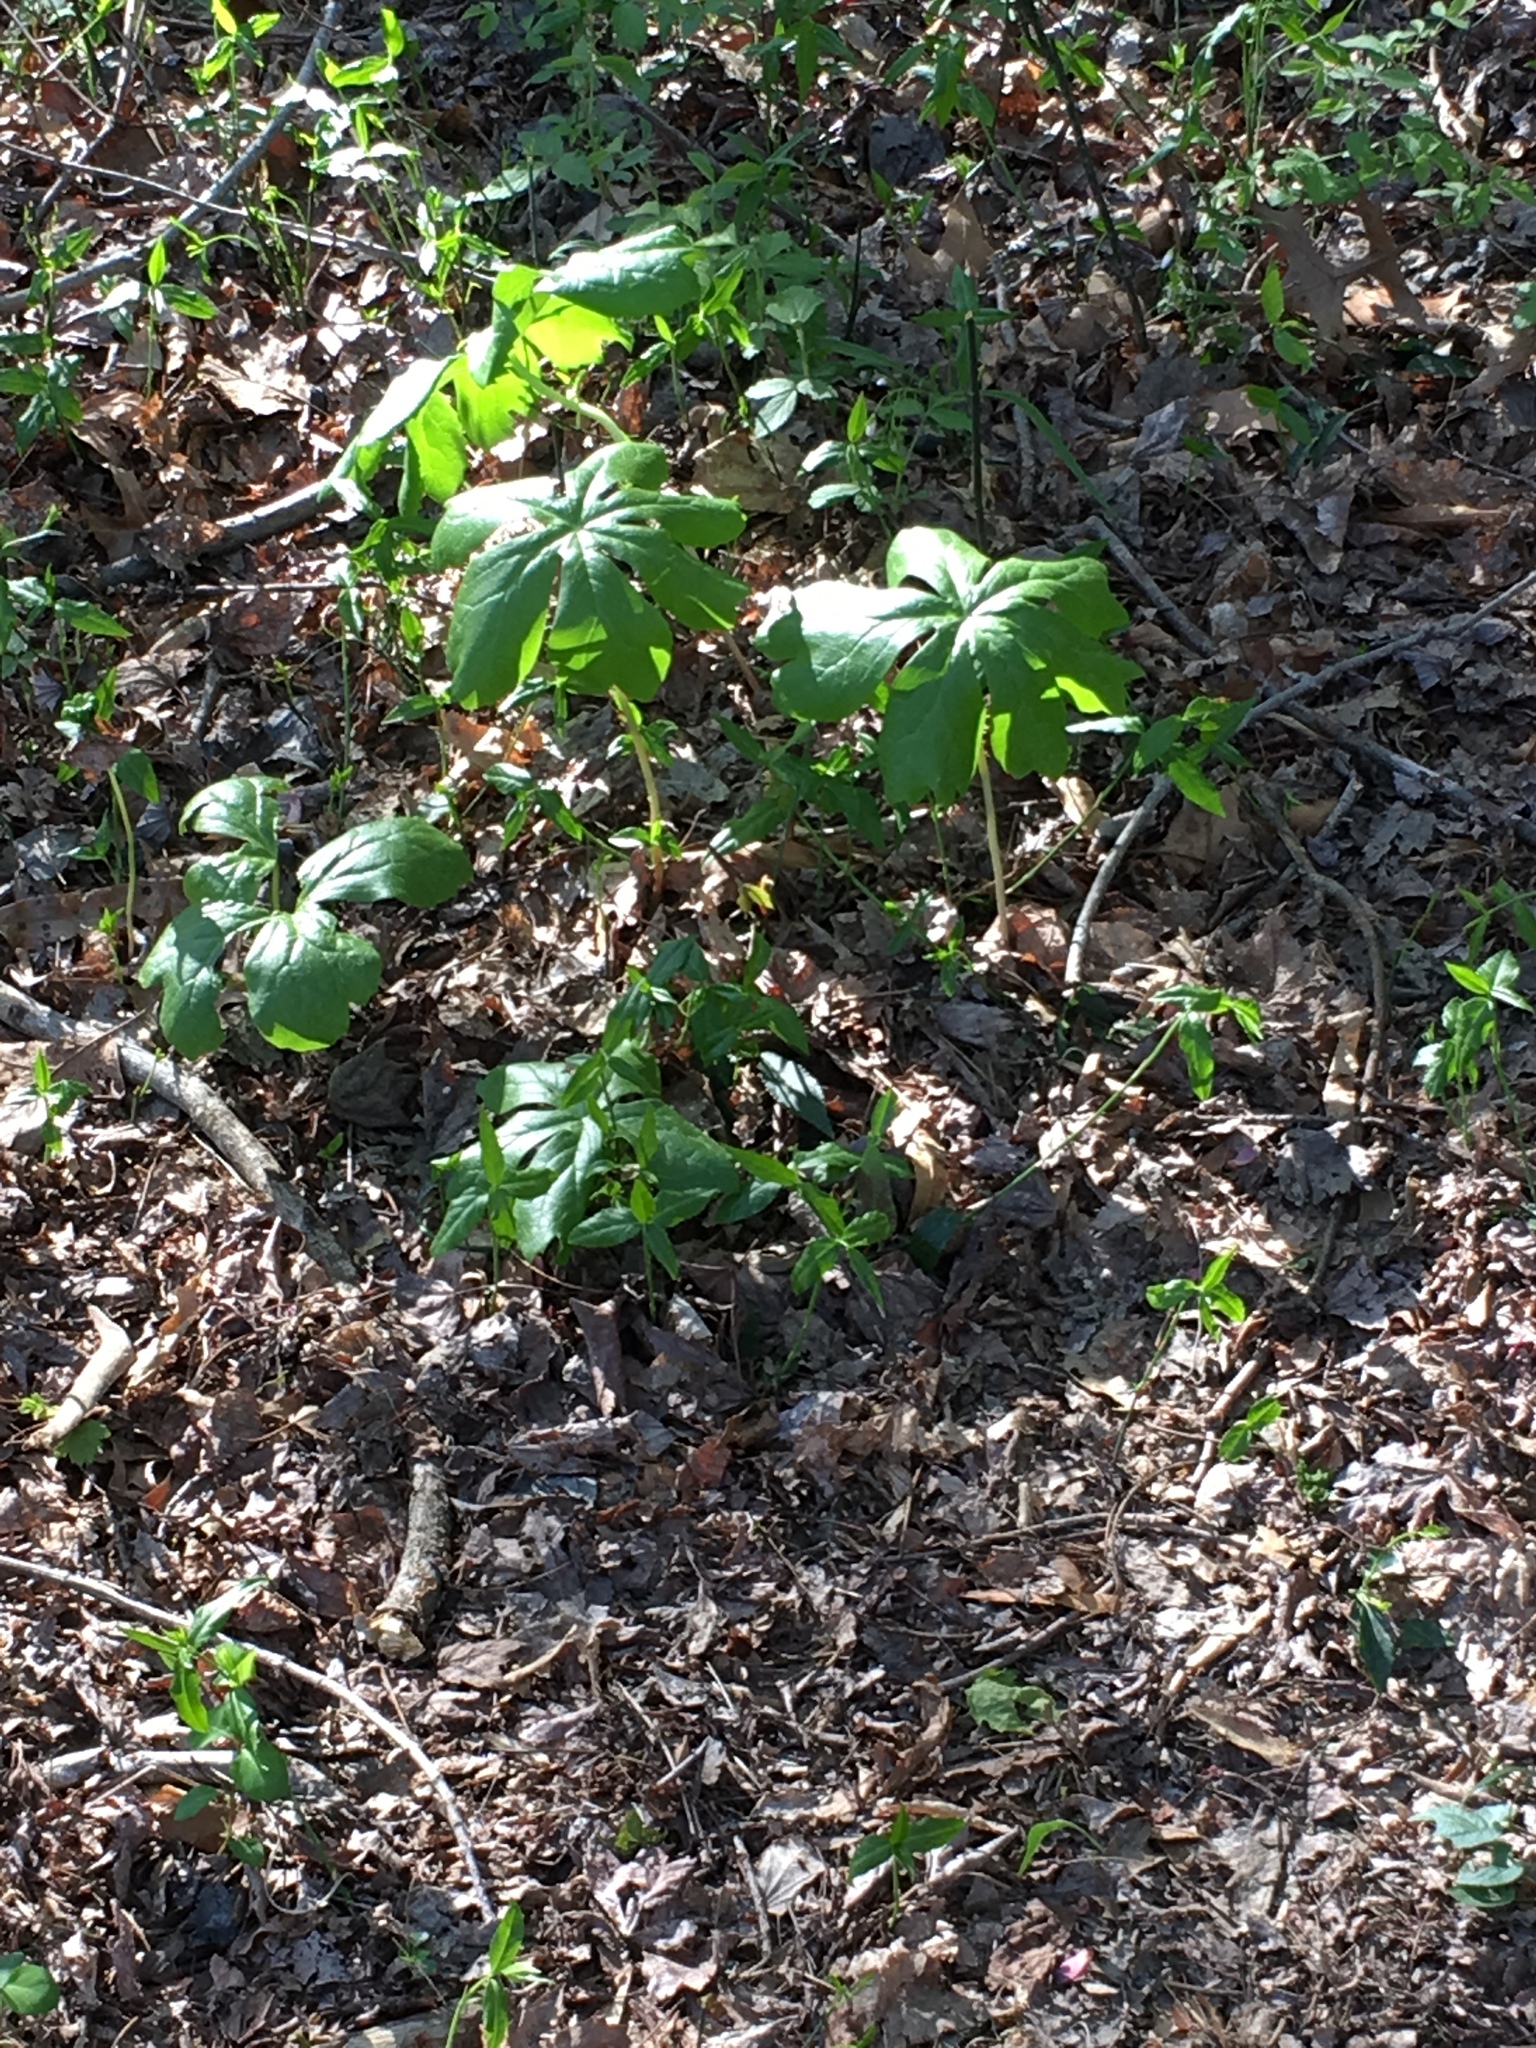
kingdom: Plantae
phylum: Tracheophyta
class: Magnoliopsida
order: Ranunculales
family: Berberidaceae
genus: Podophyllum
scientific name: Podophyllum peltatum
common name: Wild mandrake
